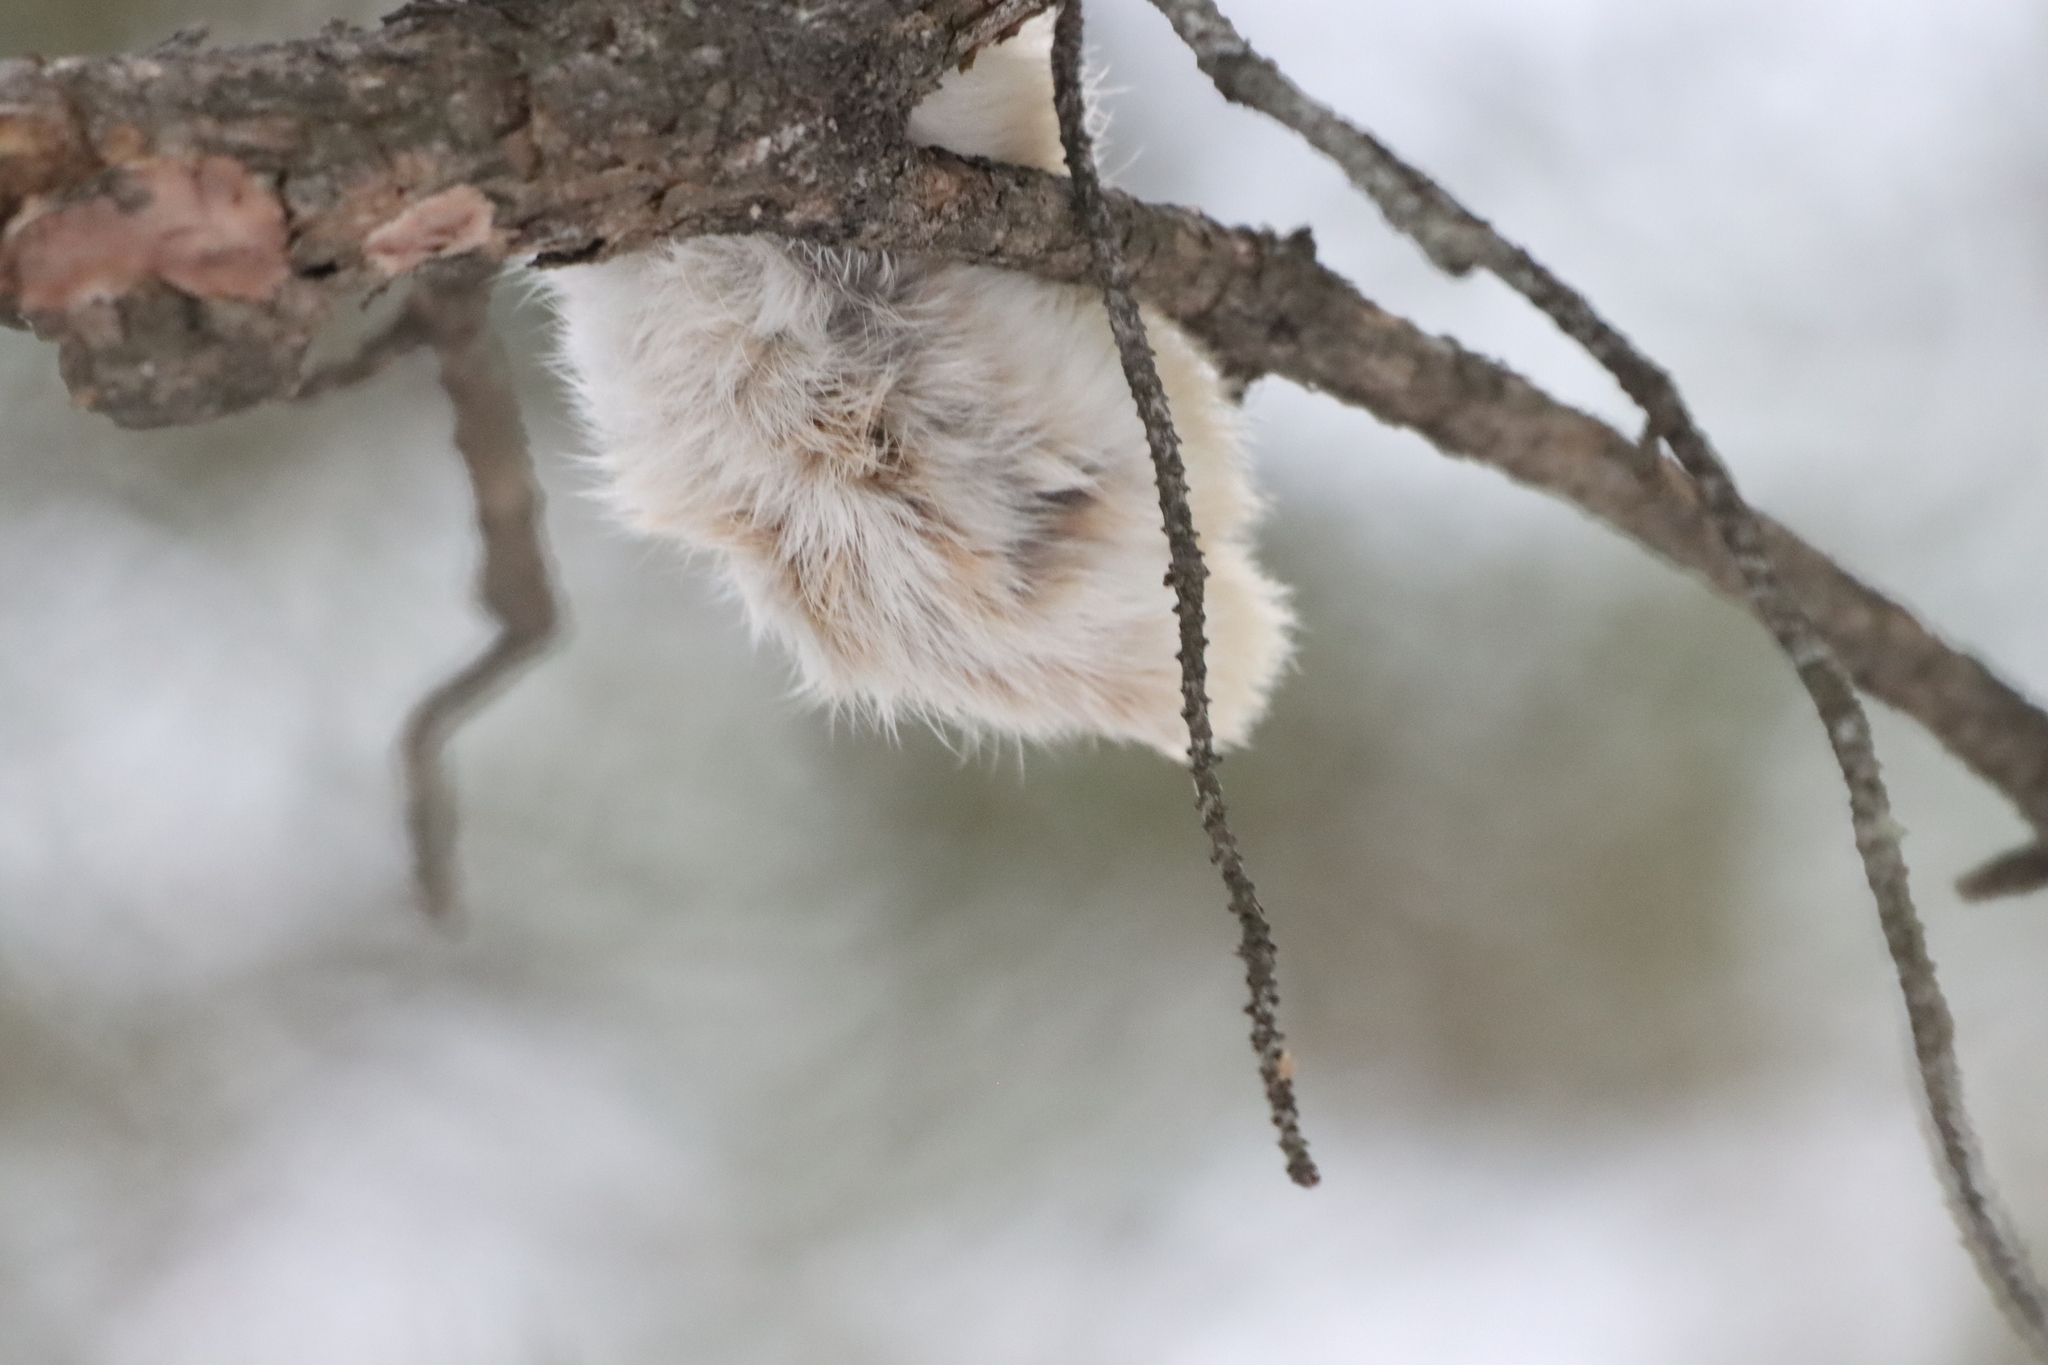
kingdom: Animalia
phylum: Chordata
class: Aves
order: Passeriformes
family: Corvidae
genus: Corvus
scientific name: Corvus corax
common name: Common raven
